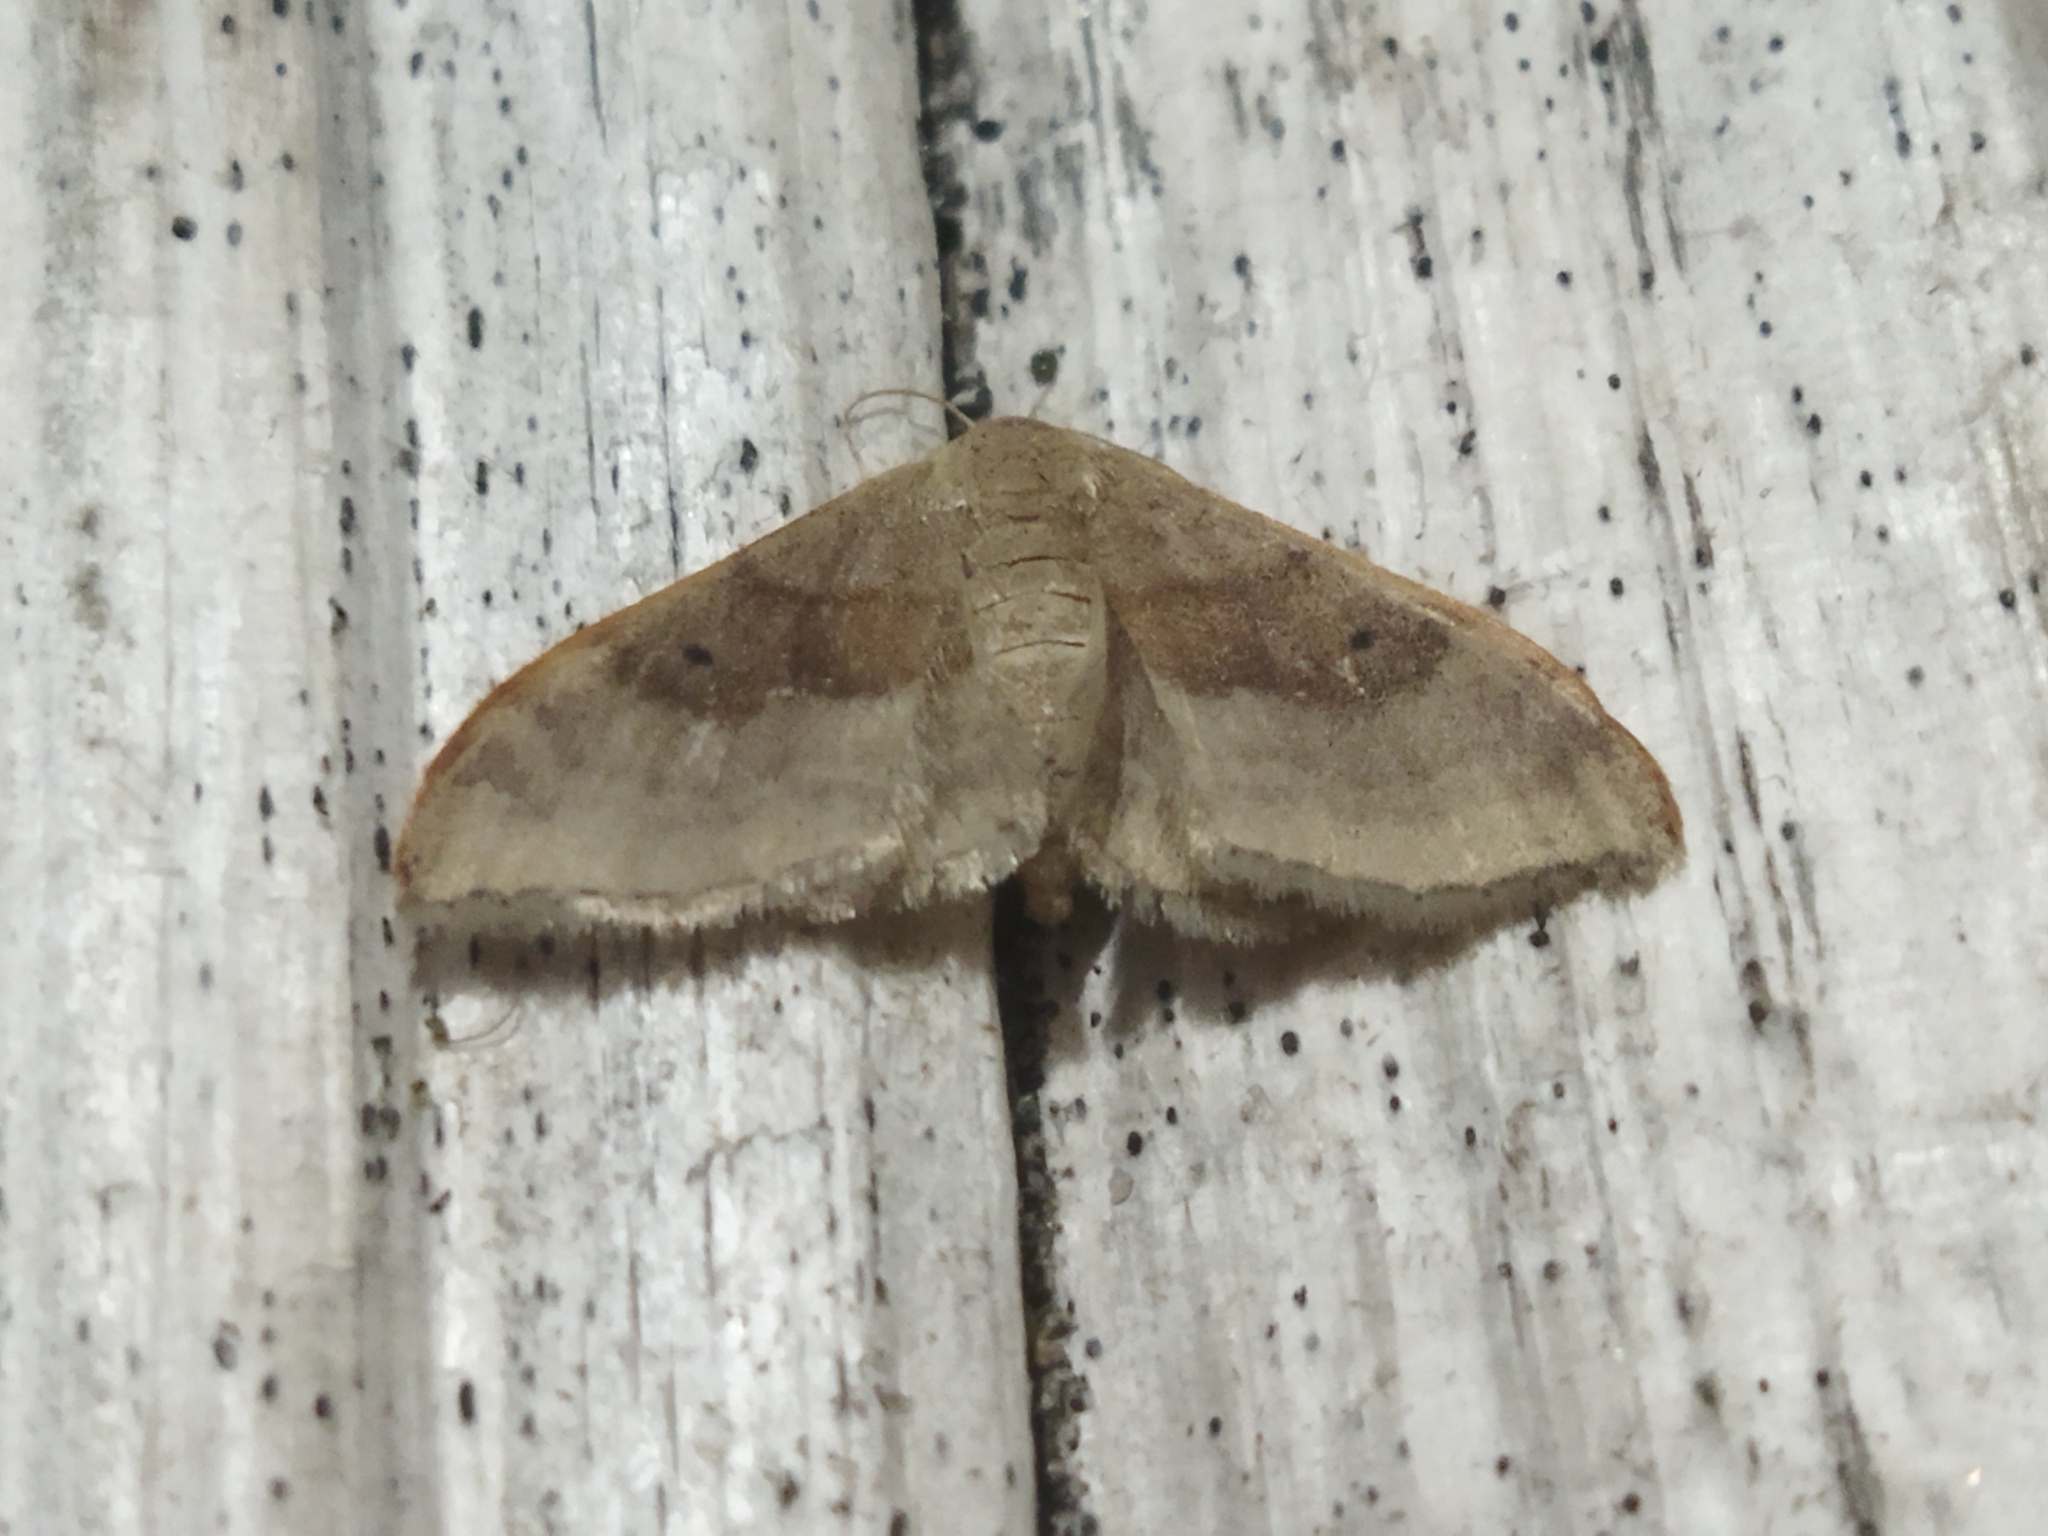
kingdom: Animalia
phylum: Arthropoda
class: Insecta
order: Lepidoptera
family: Geometridae
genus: Idaea
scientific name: Idaea degeneraria
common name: Portland ribbon wave
